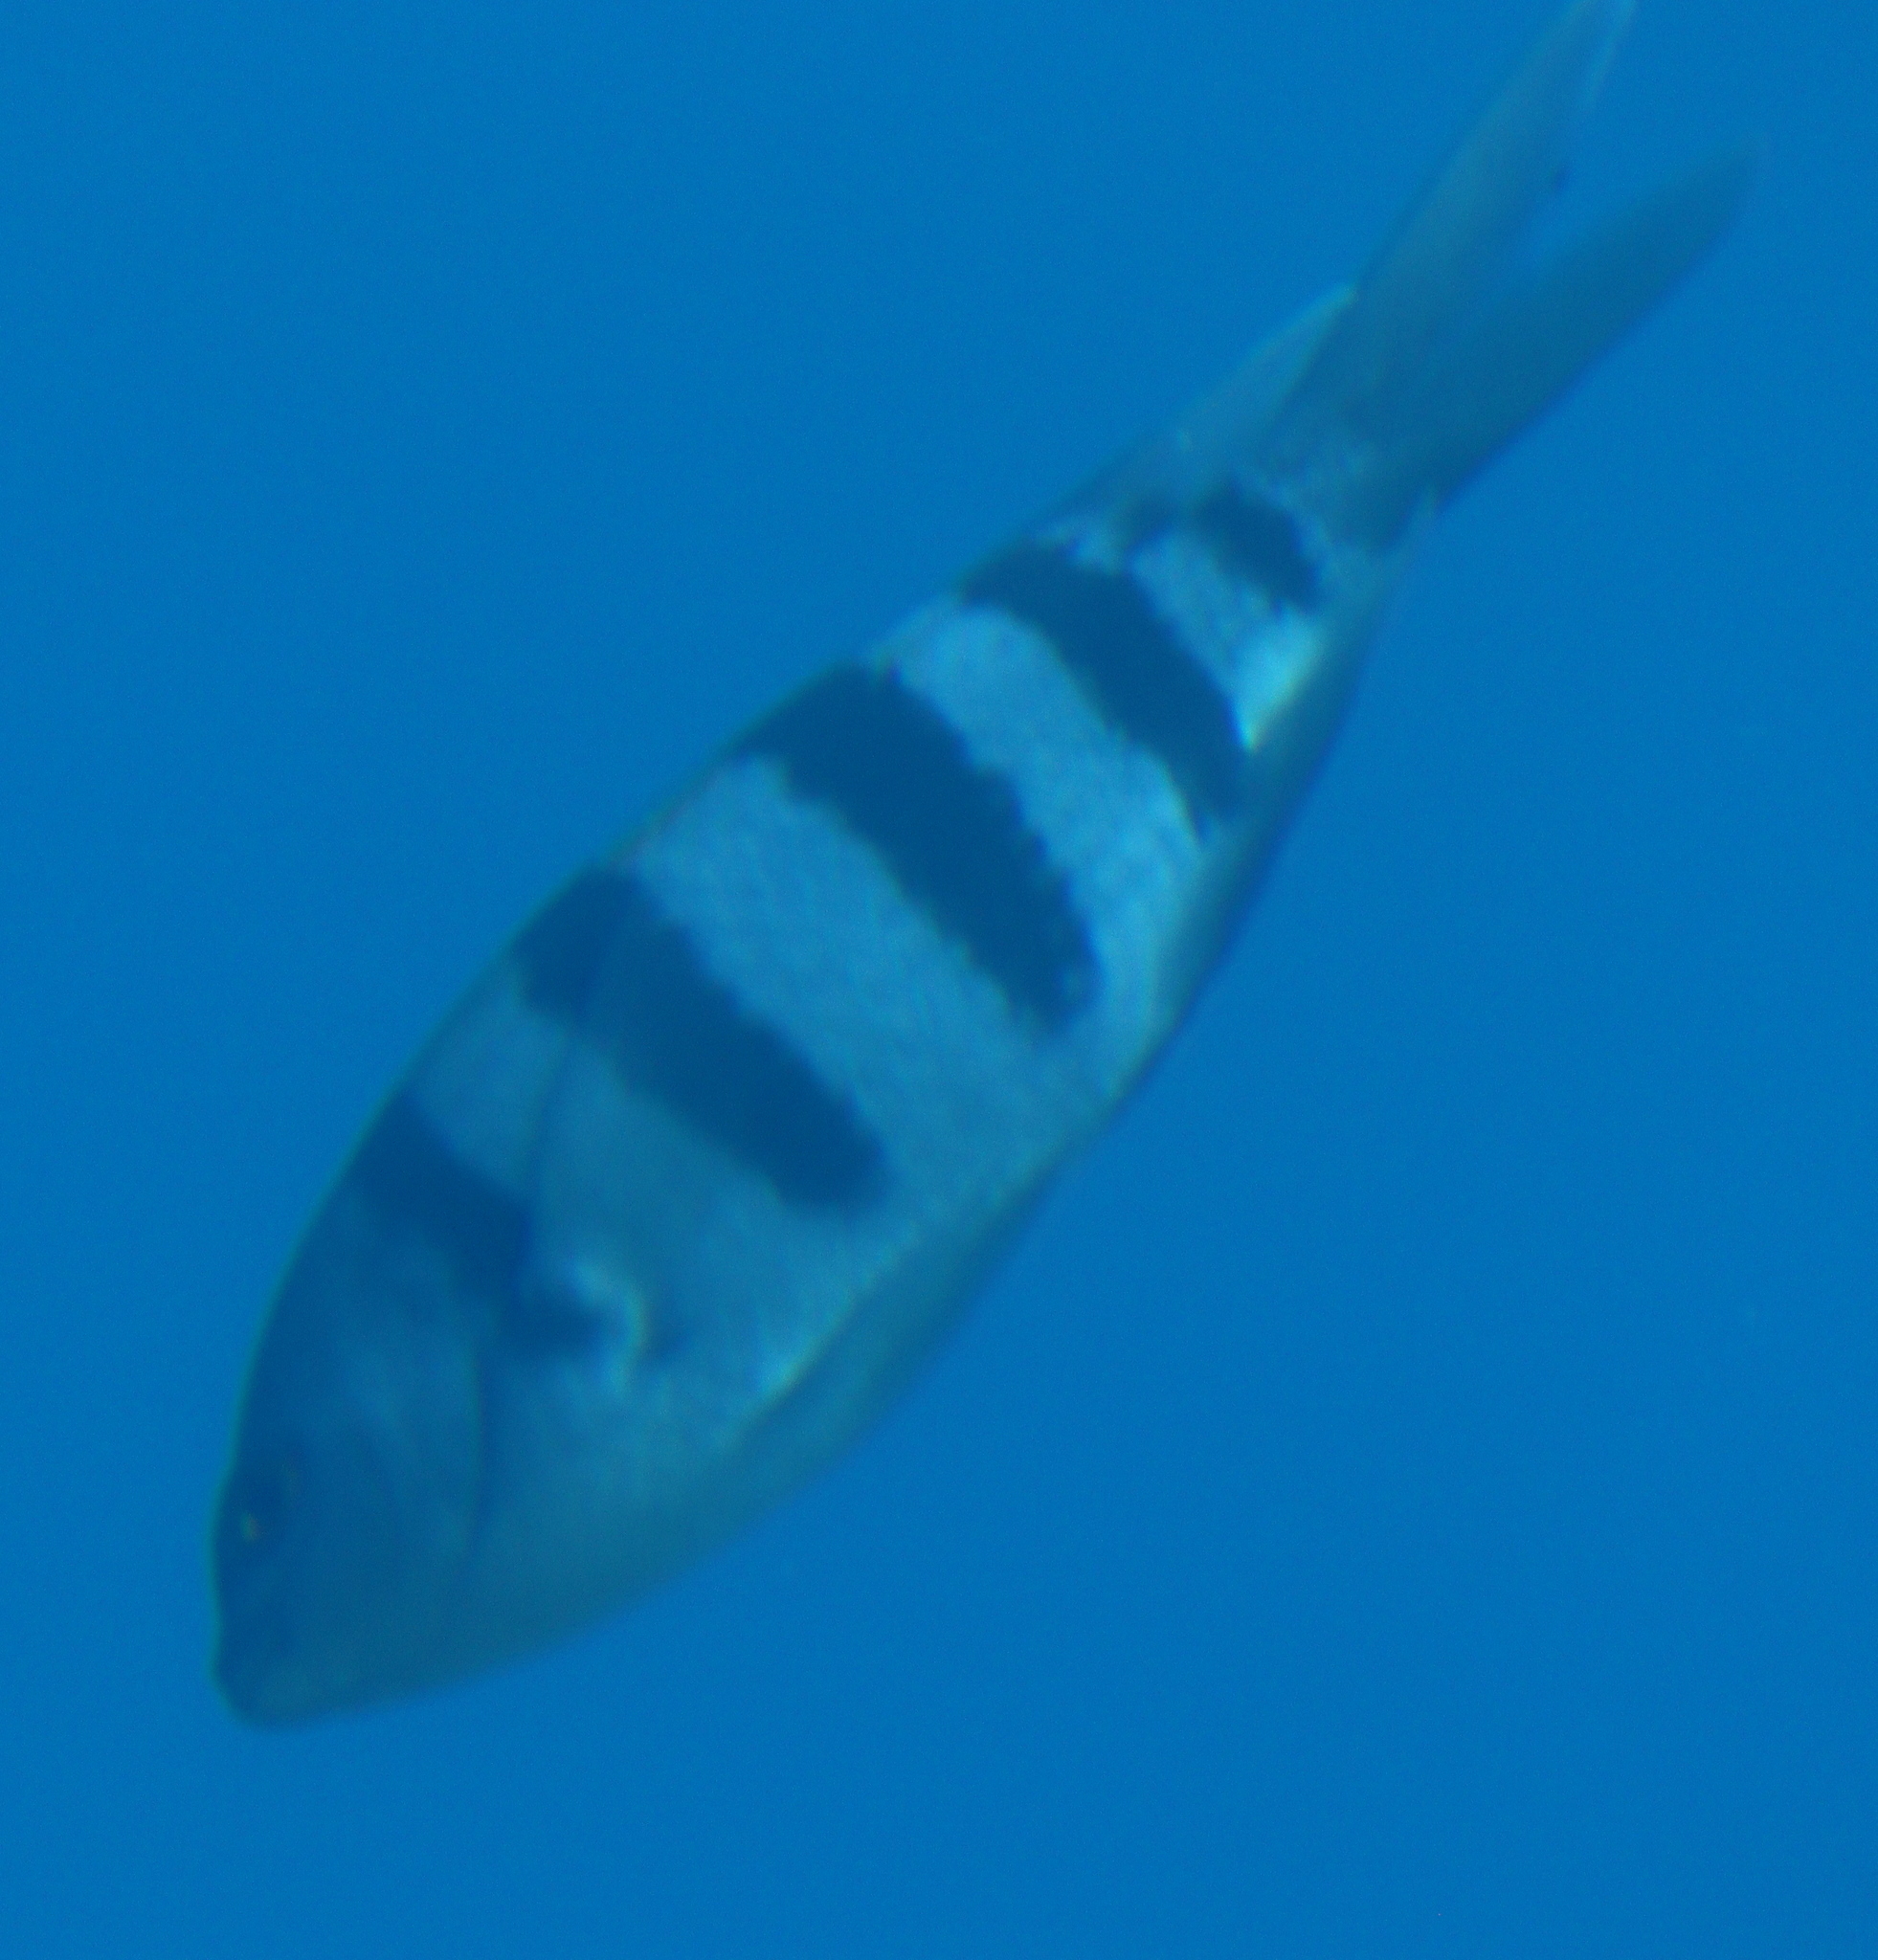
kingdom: Animalia
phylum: Chordata
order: Perciformes
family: Pomacentridae
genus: Abudefduf
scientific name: Abudefduf vaigiensis
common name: Indo-pacific sergeant
